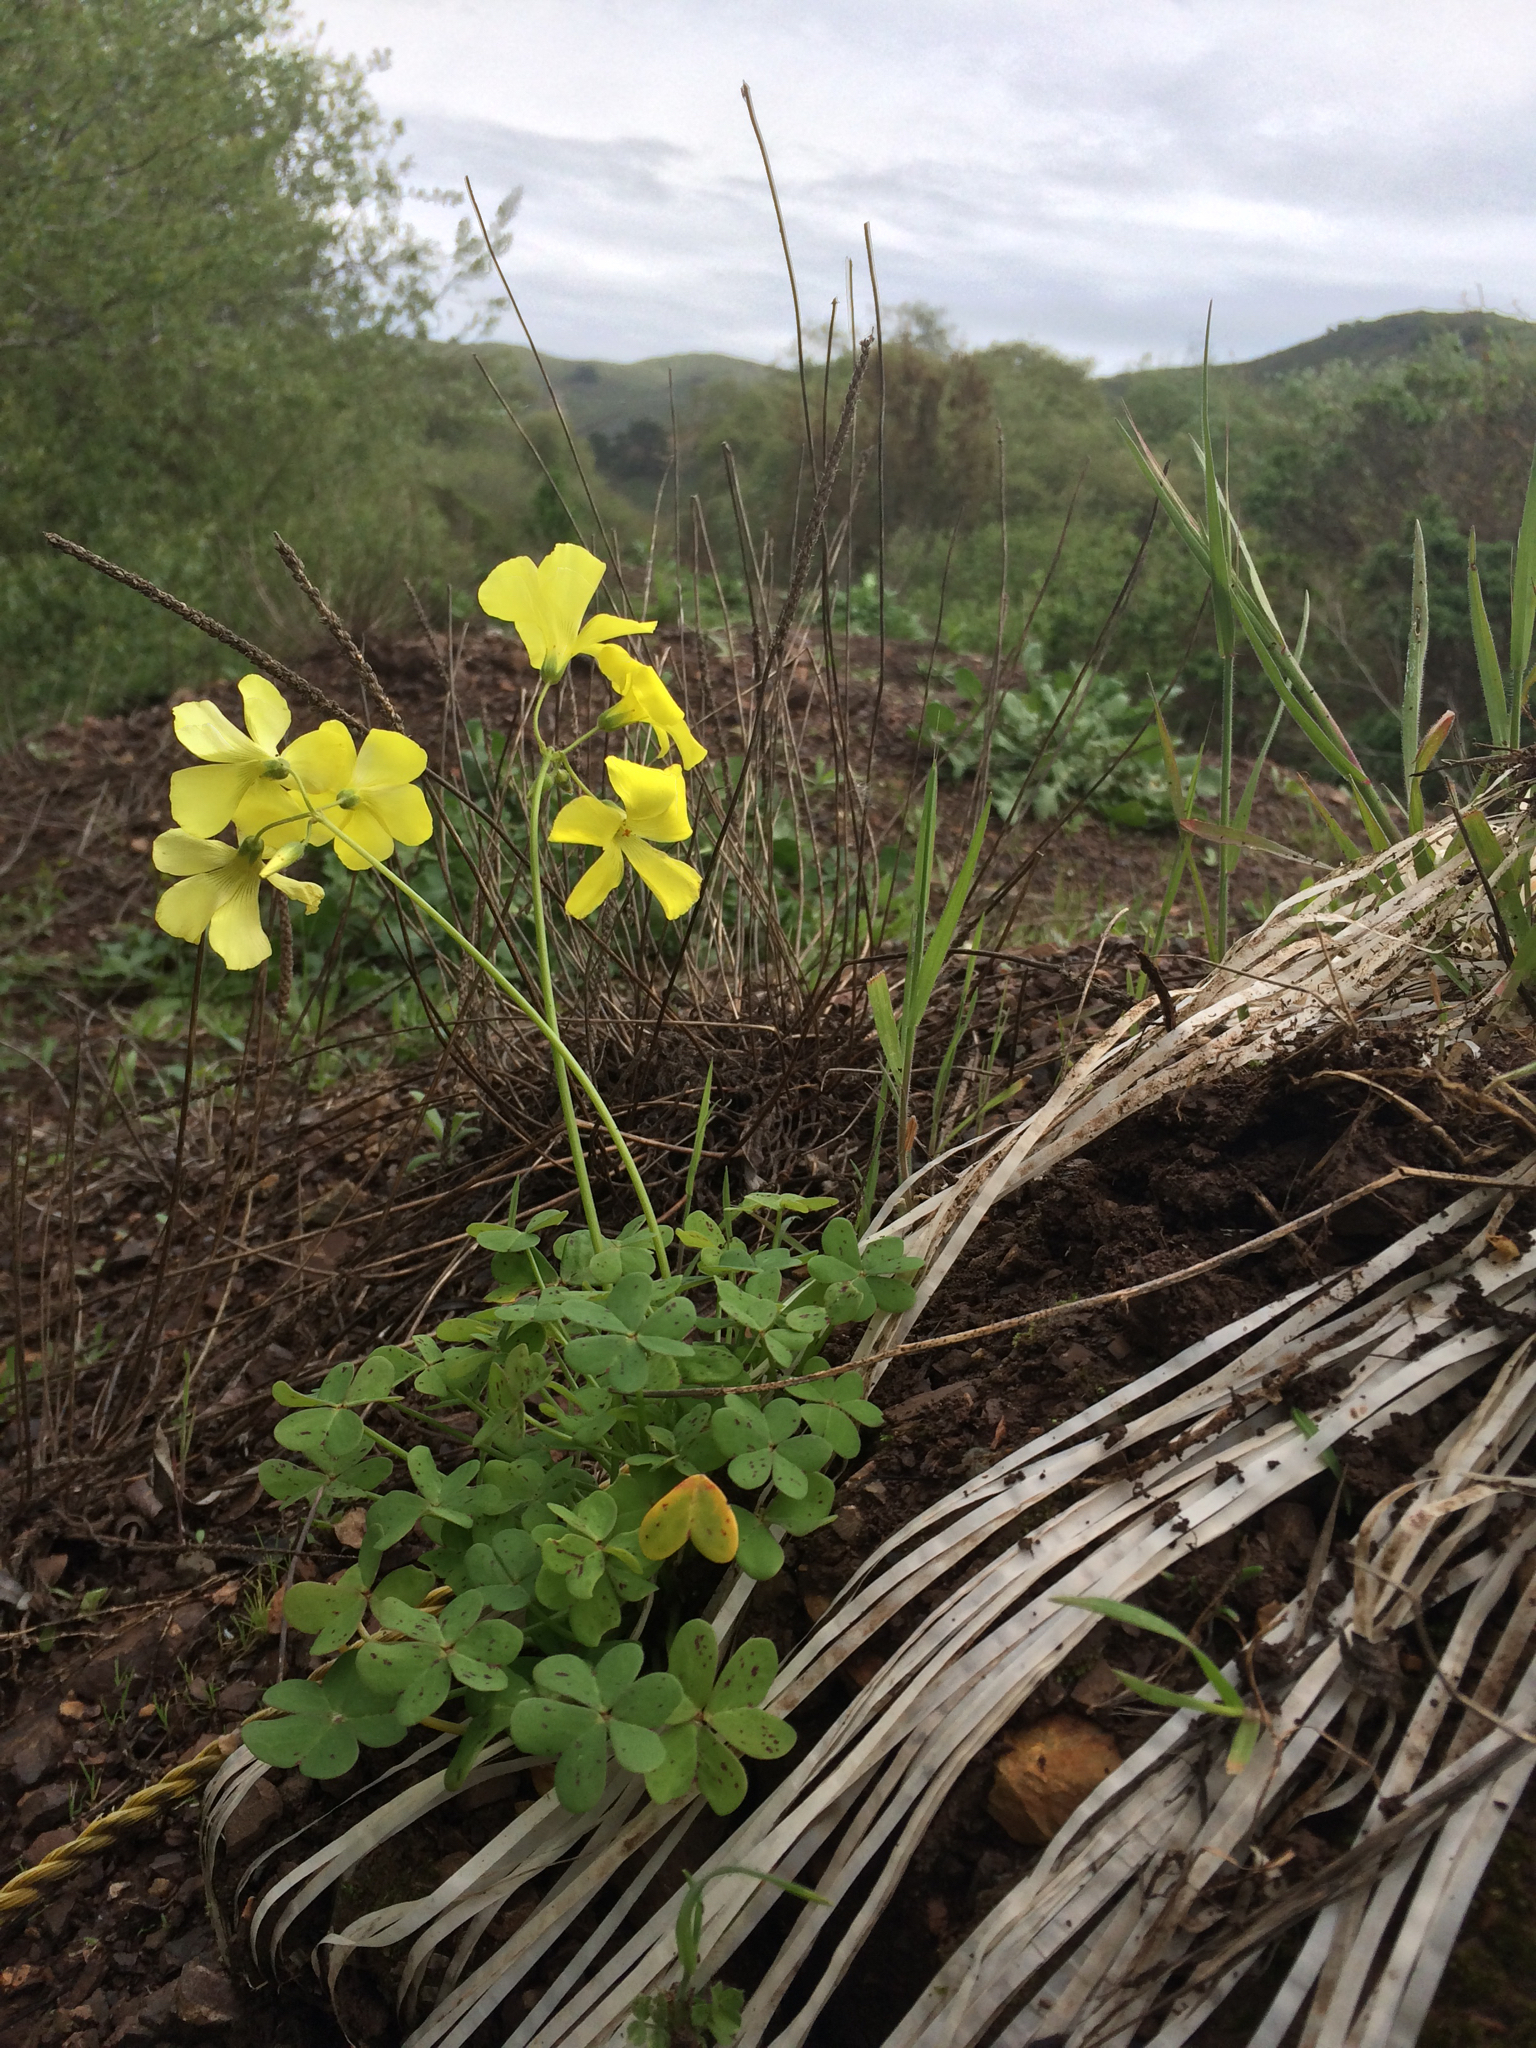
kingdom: Plantae
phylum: Tracheophyta
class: Magnoliopsida
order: Oxalidales
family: Oxalidaceae
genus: Oxalis
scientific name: Oxalis pes-caprae
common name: Bermuda-buttercup
